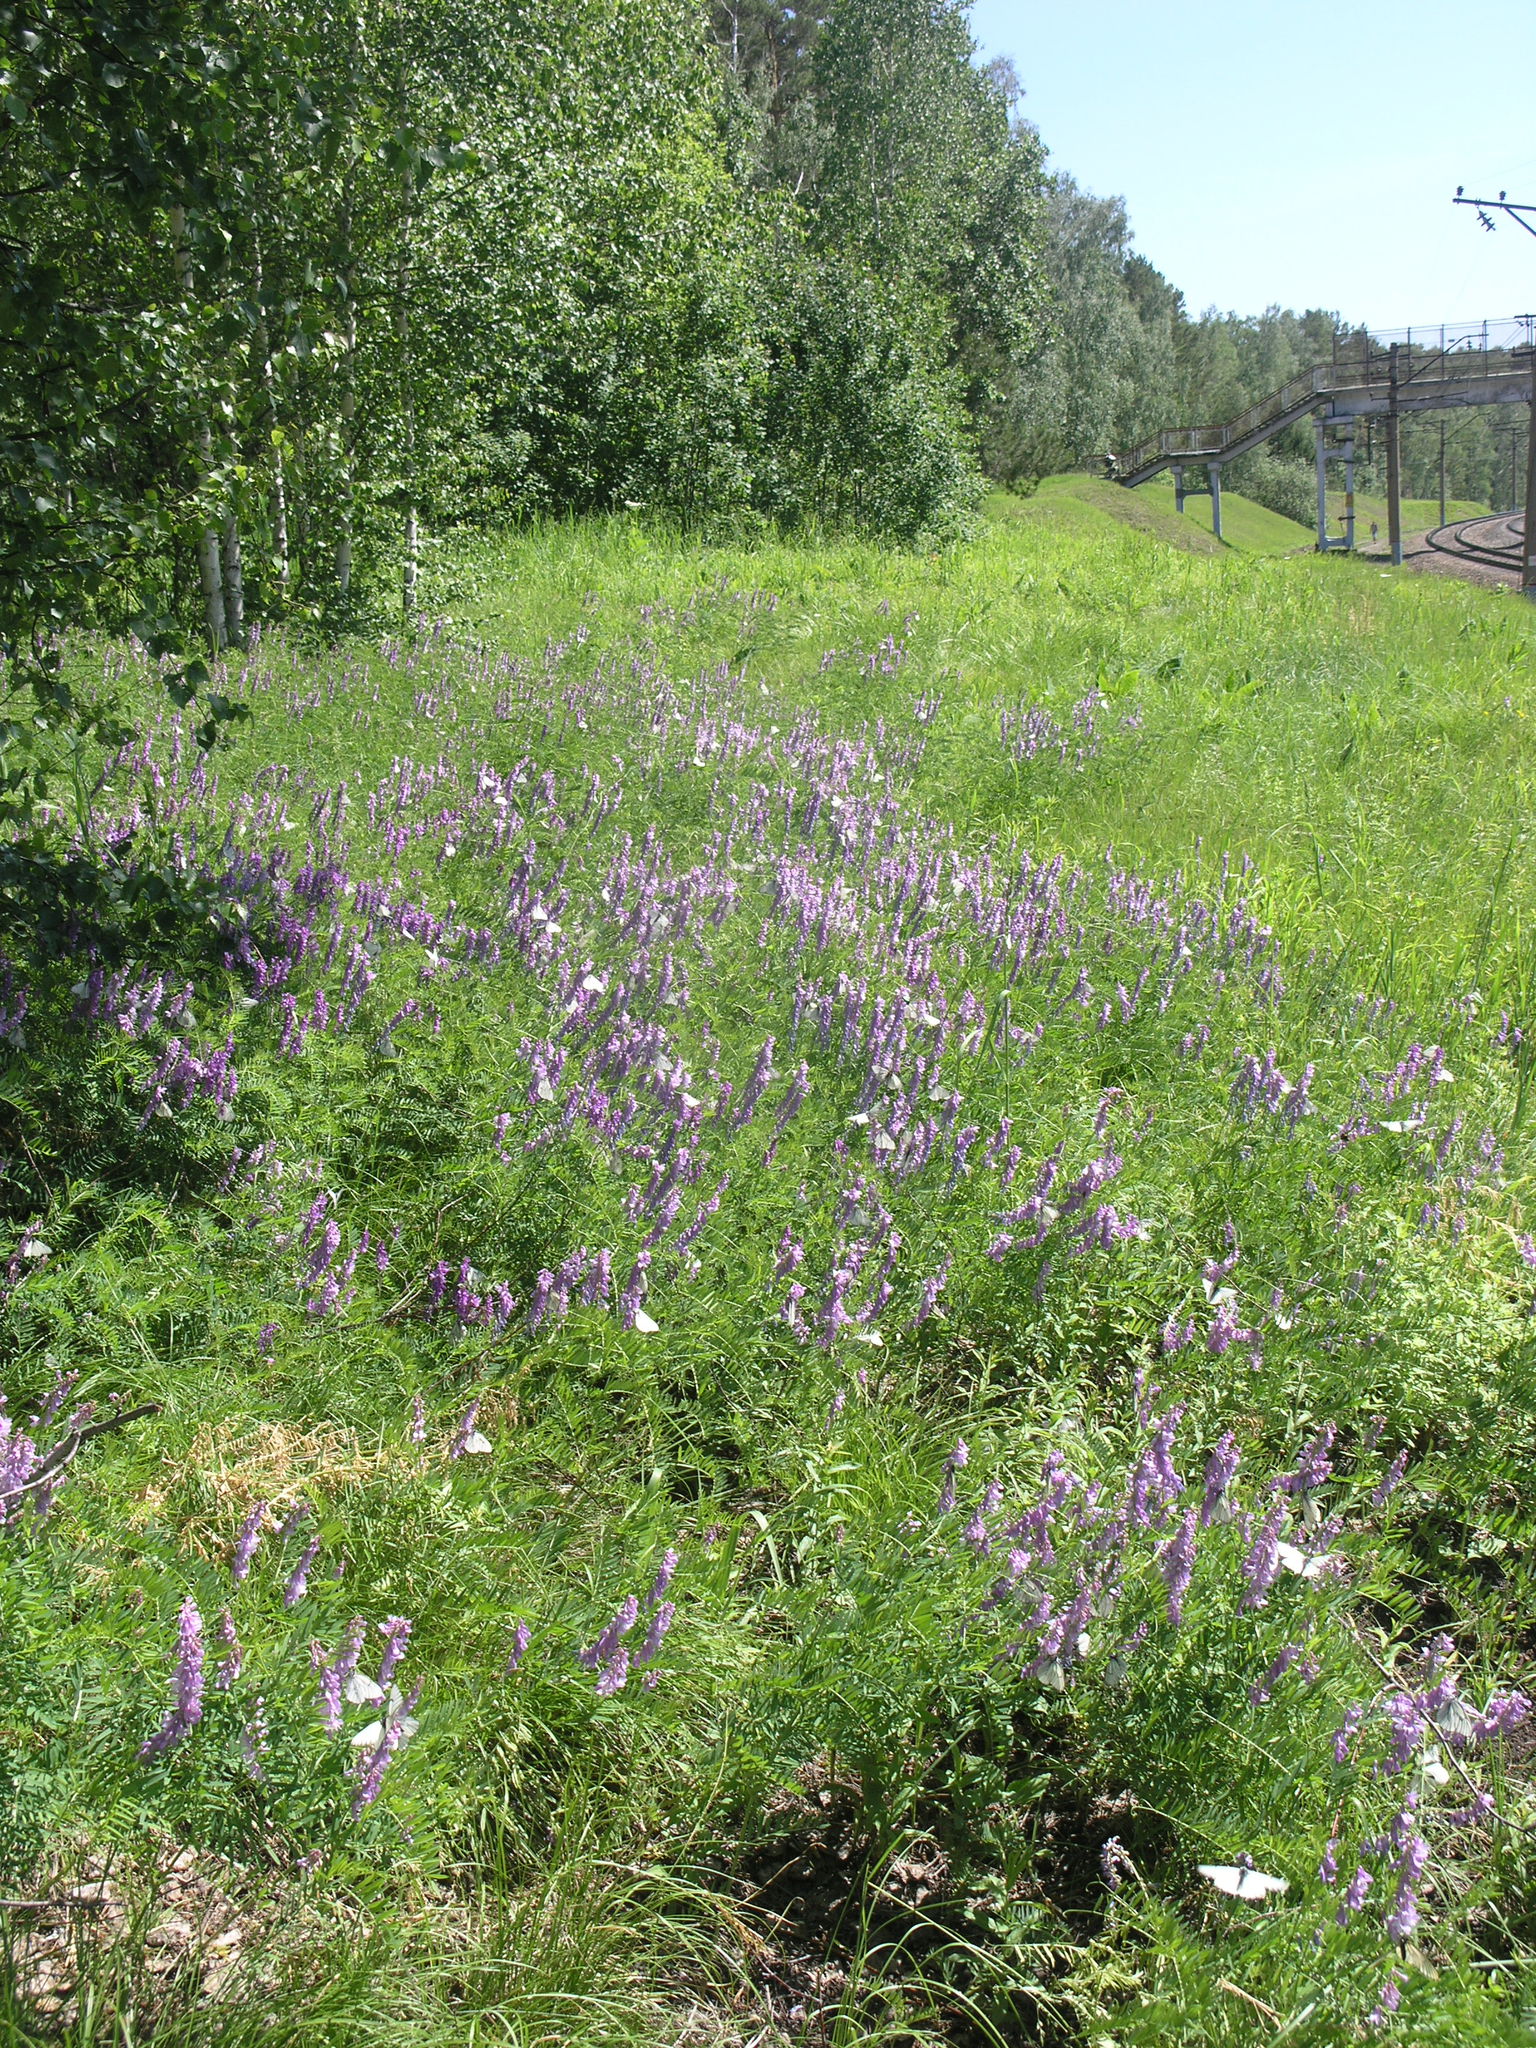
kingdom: Plantae
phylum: Tracheophyta
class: Magnoliopsida
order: Fabales
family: Fabaceae
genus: Vicia
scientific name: Vicia tenuifolia
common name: Fine-leaved vetch
